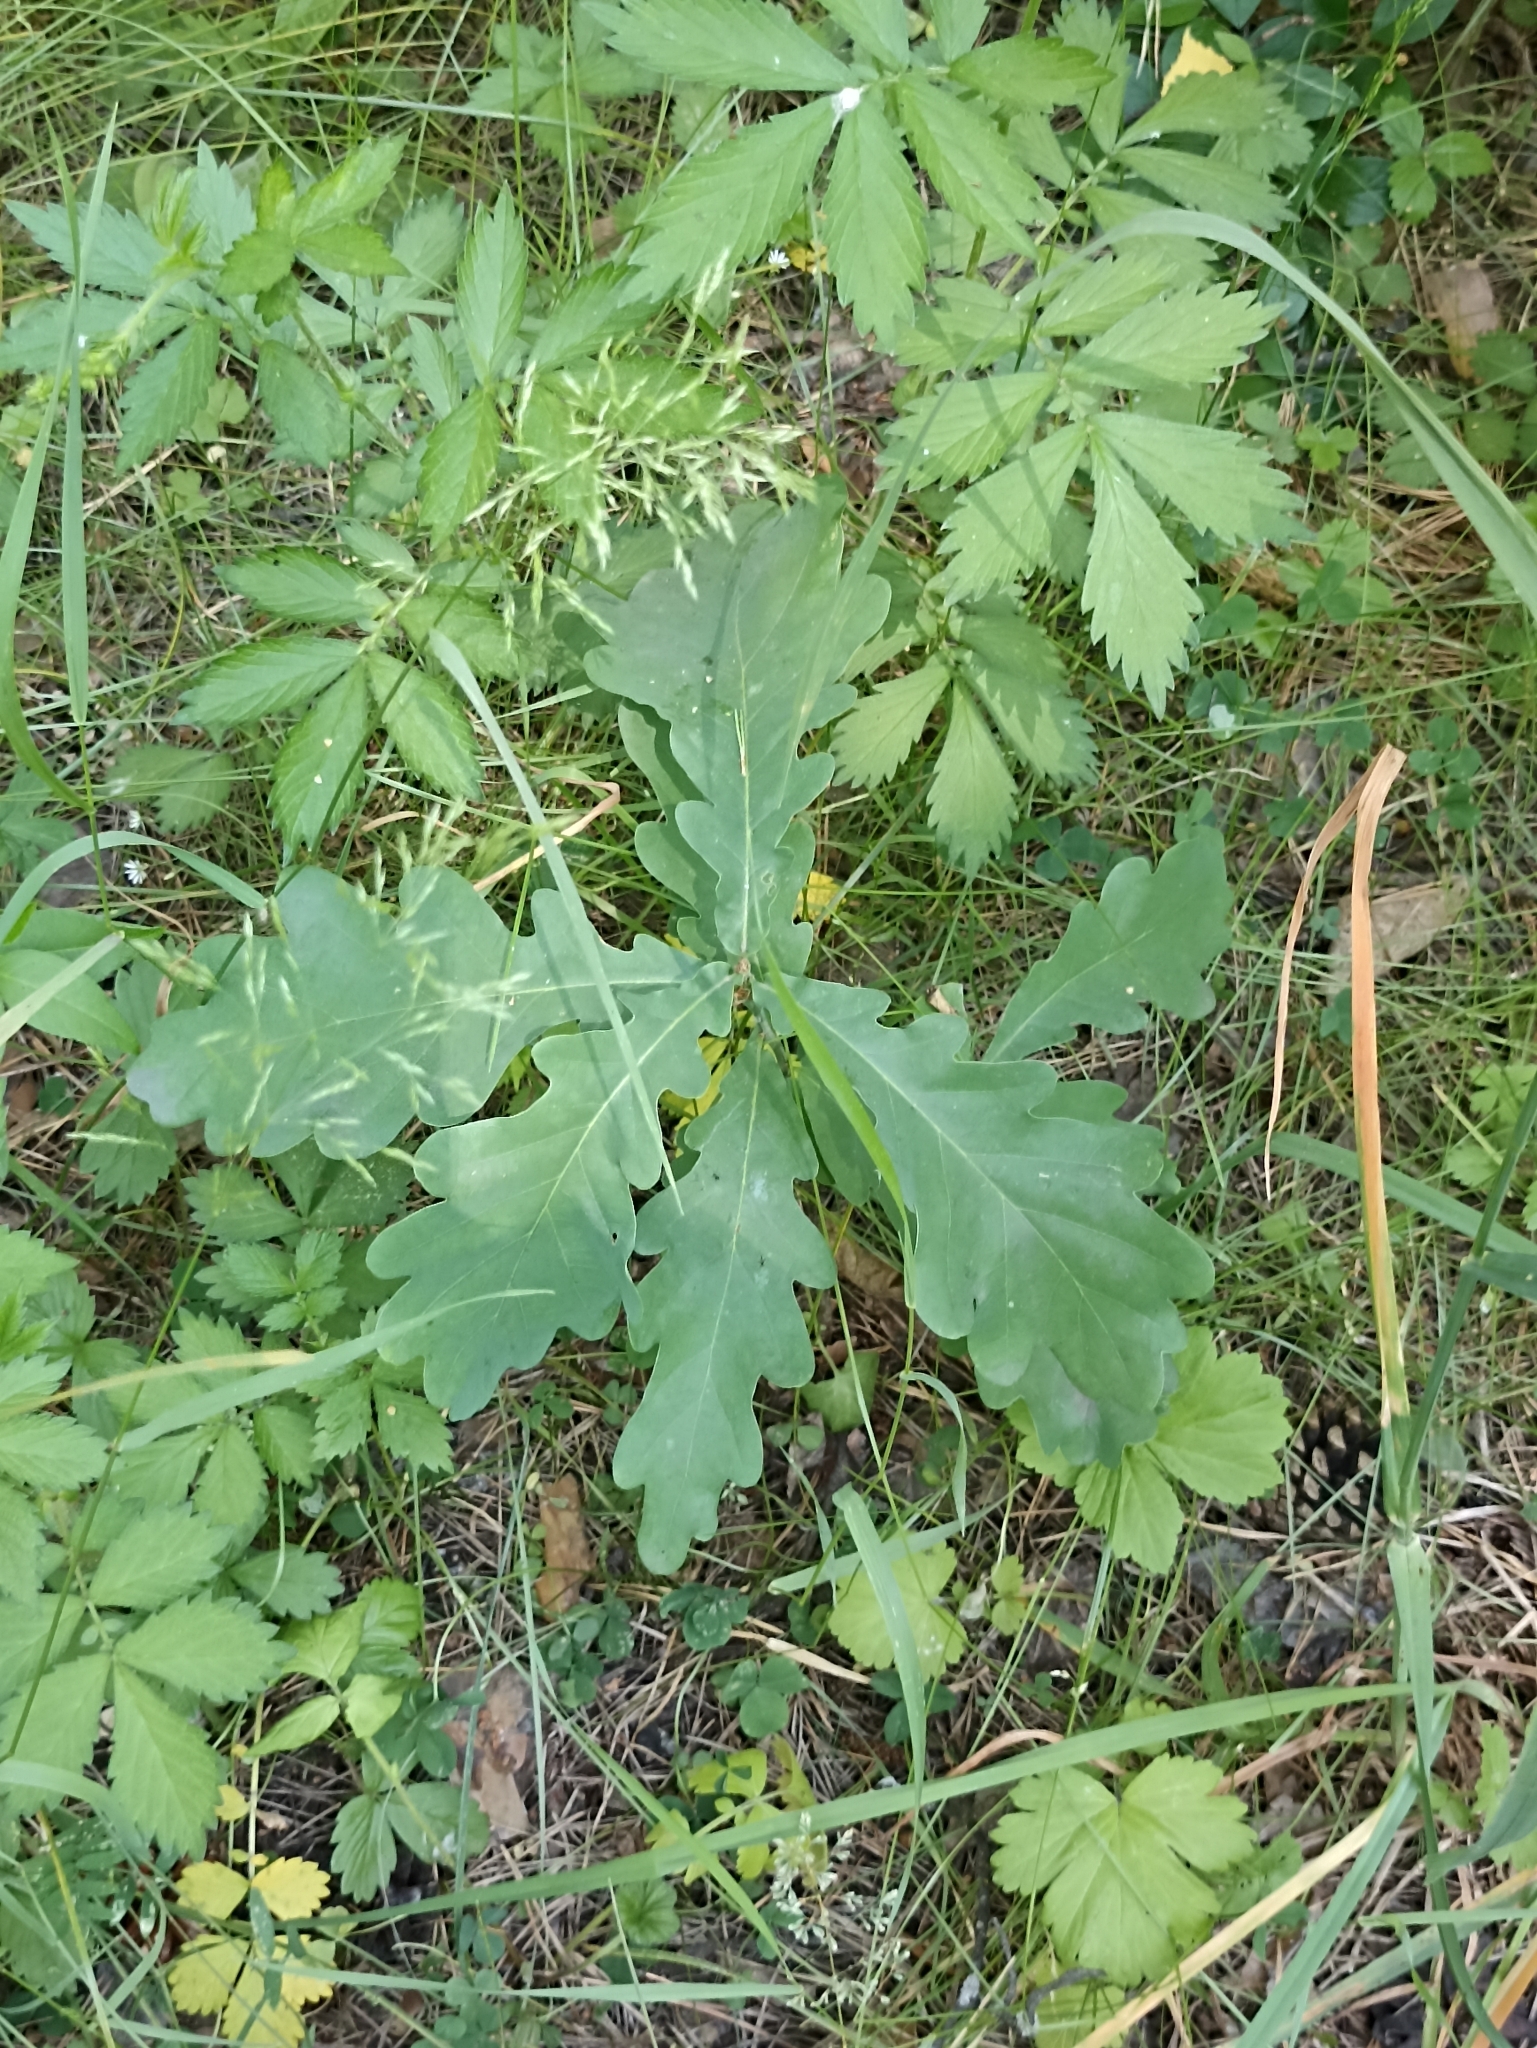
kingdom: Plantae
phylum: Tracheophyta
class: Magnoliopsida
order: Fagales
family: Fagaceae
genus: Quercus
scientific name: Quercus robur
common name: Pedunculate oak
